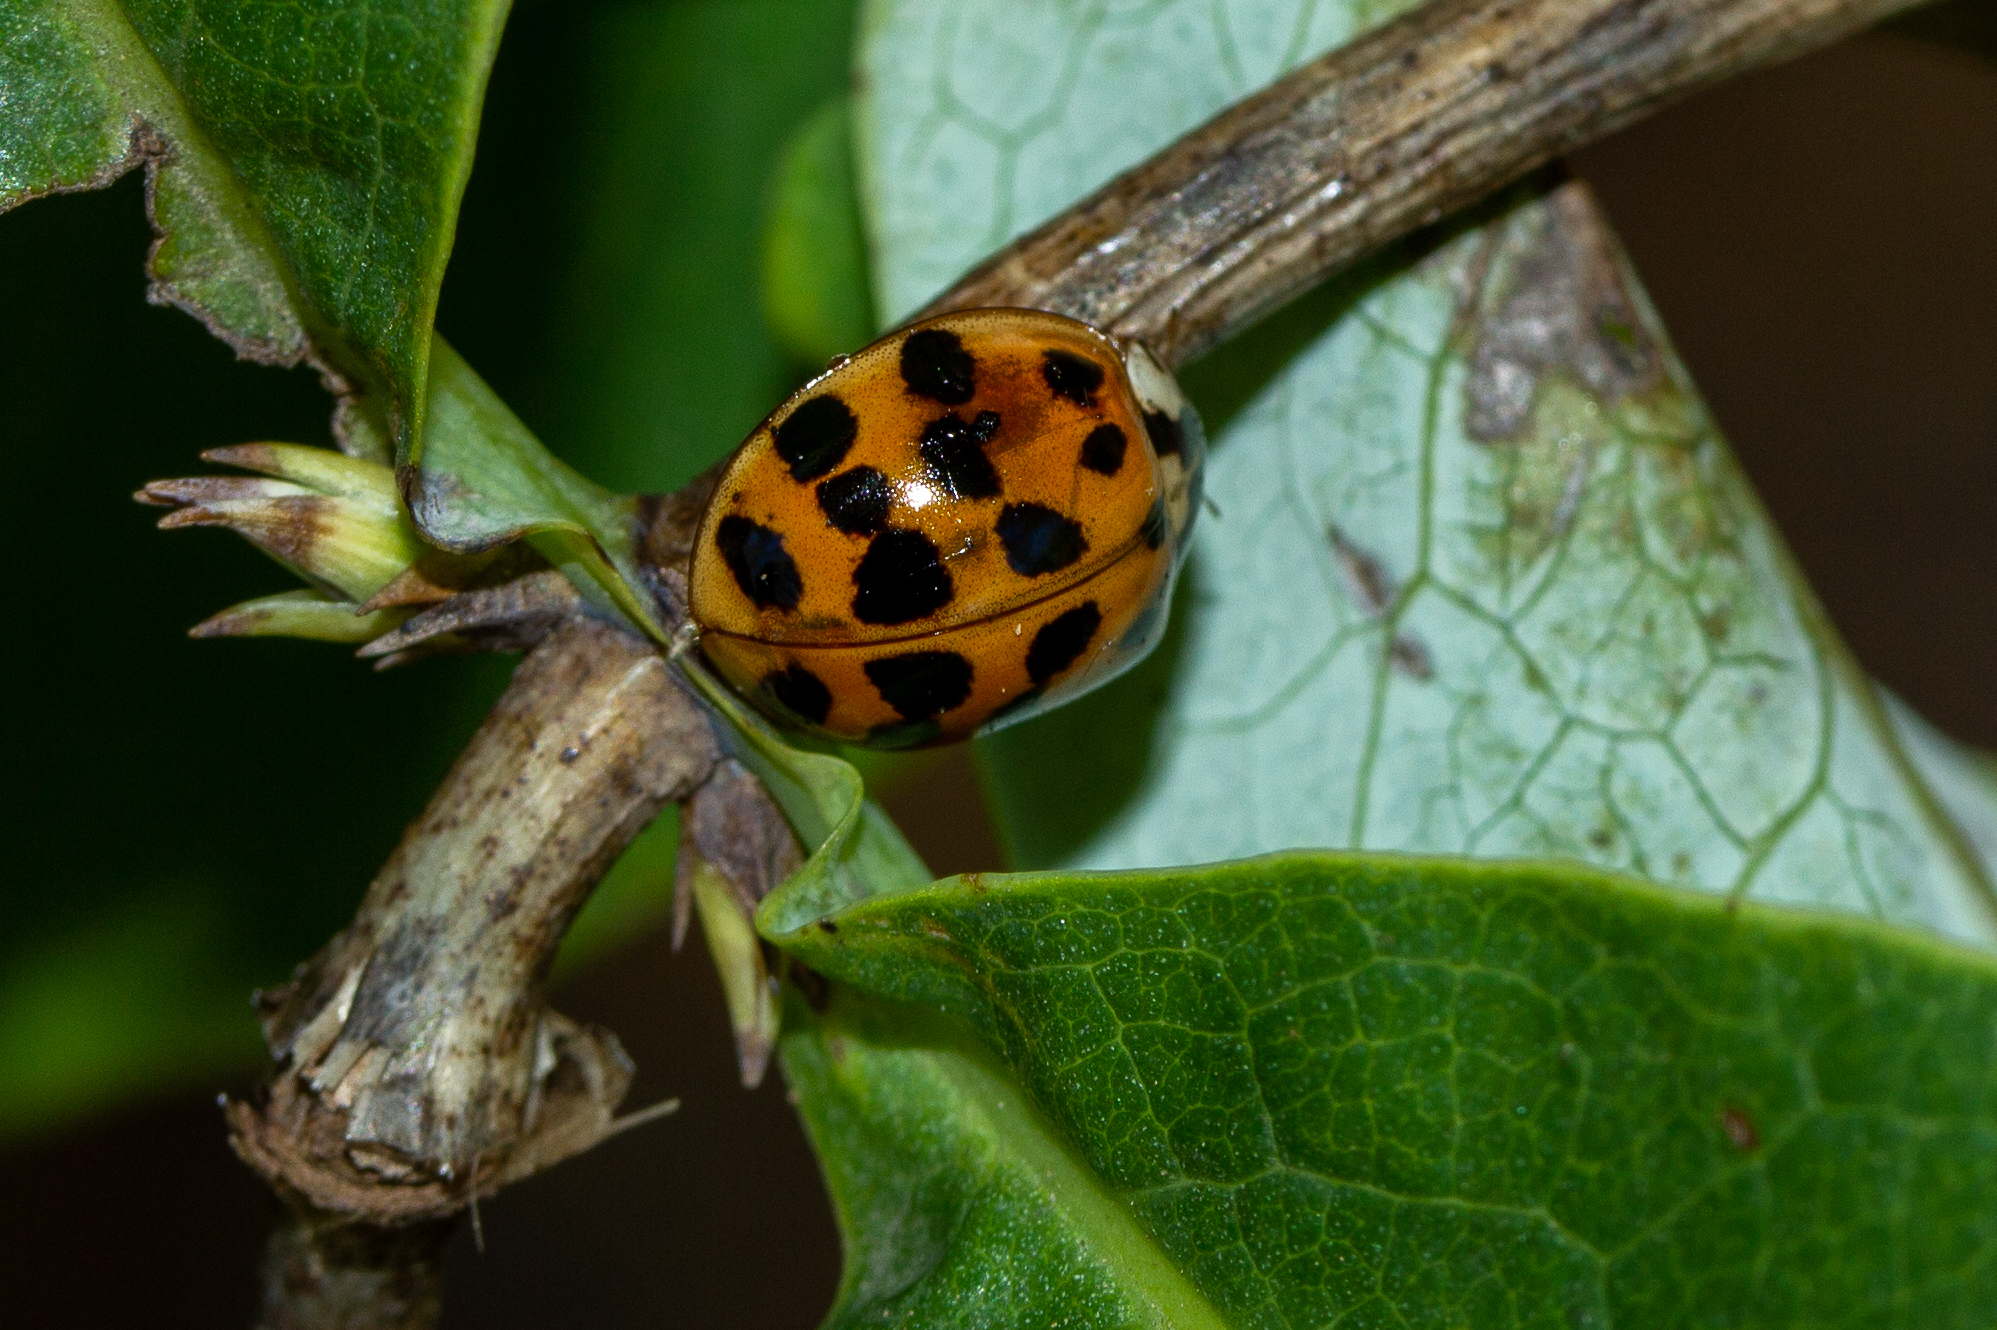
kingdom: Animalia
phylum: Arthropoda
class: Insecta
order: Coleoptera
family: Coccinellidae
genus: Harmonia
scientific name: Harmonia axyridis
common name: Harlequin ladybird
